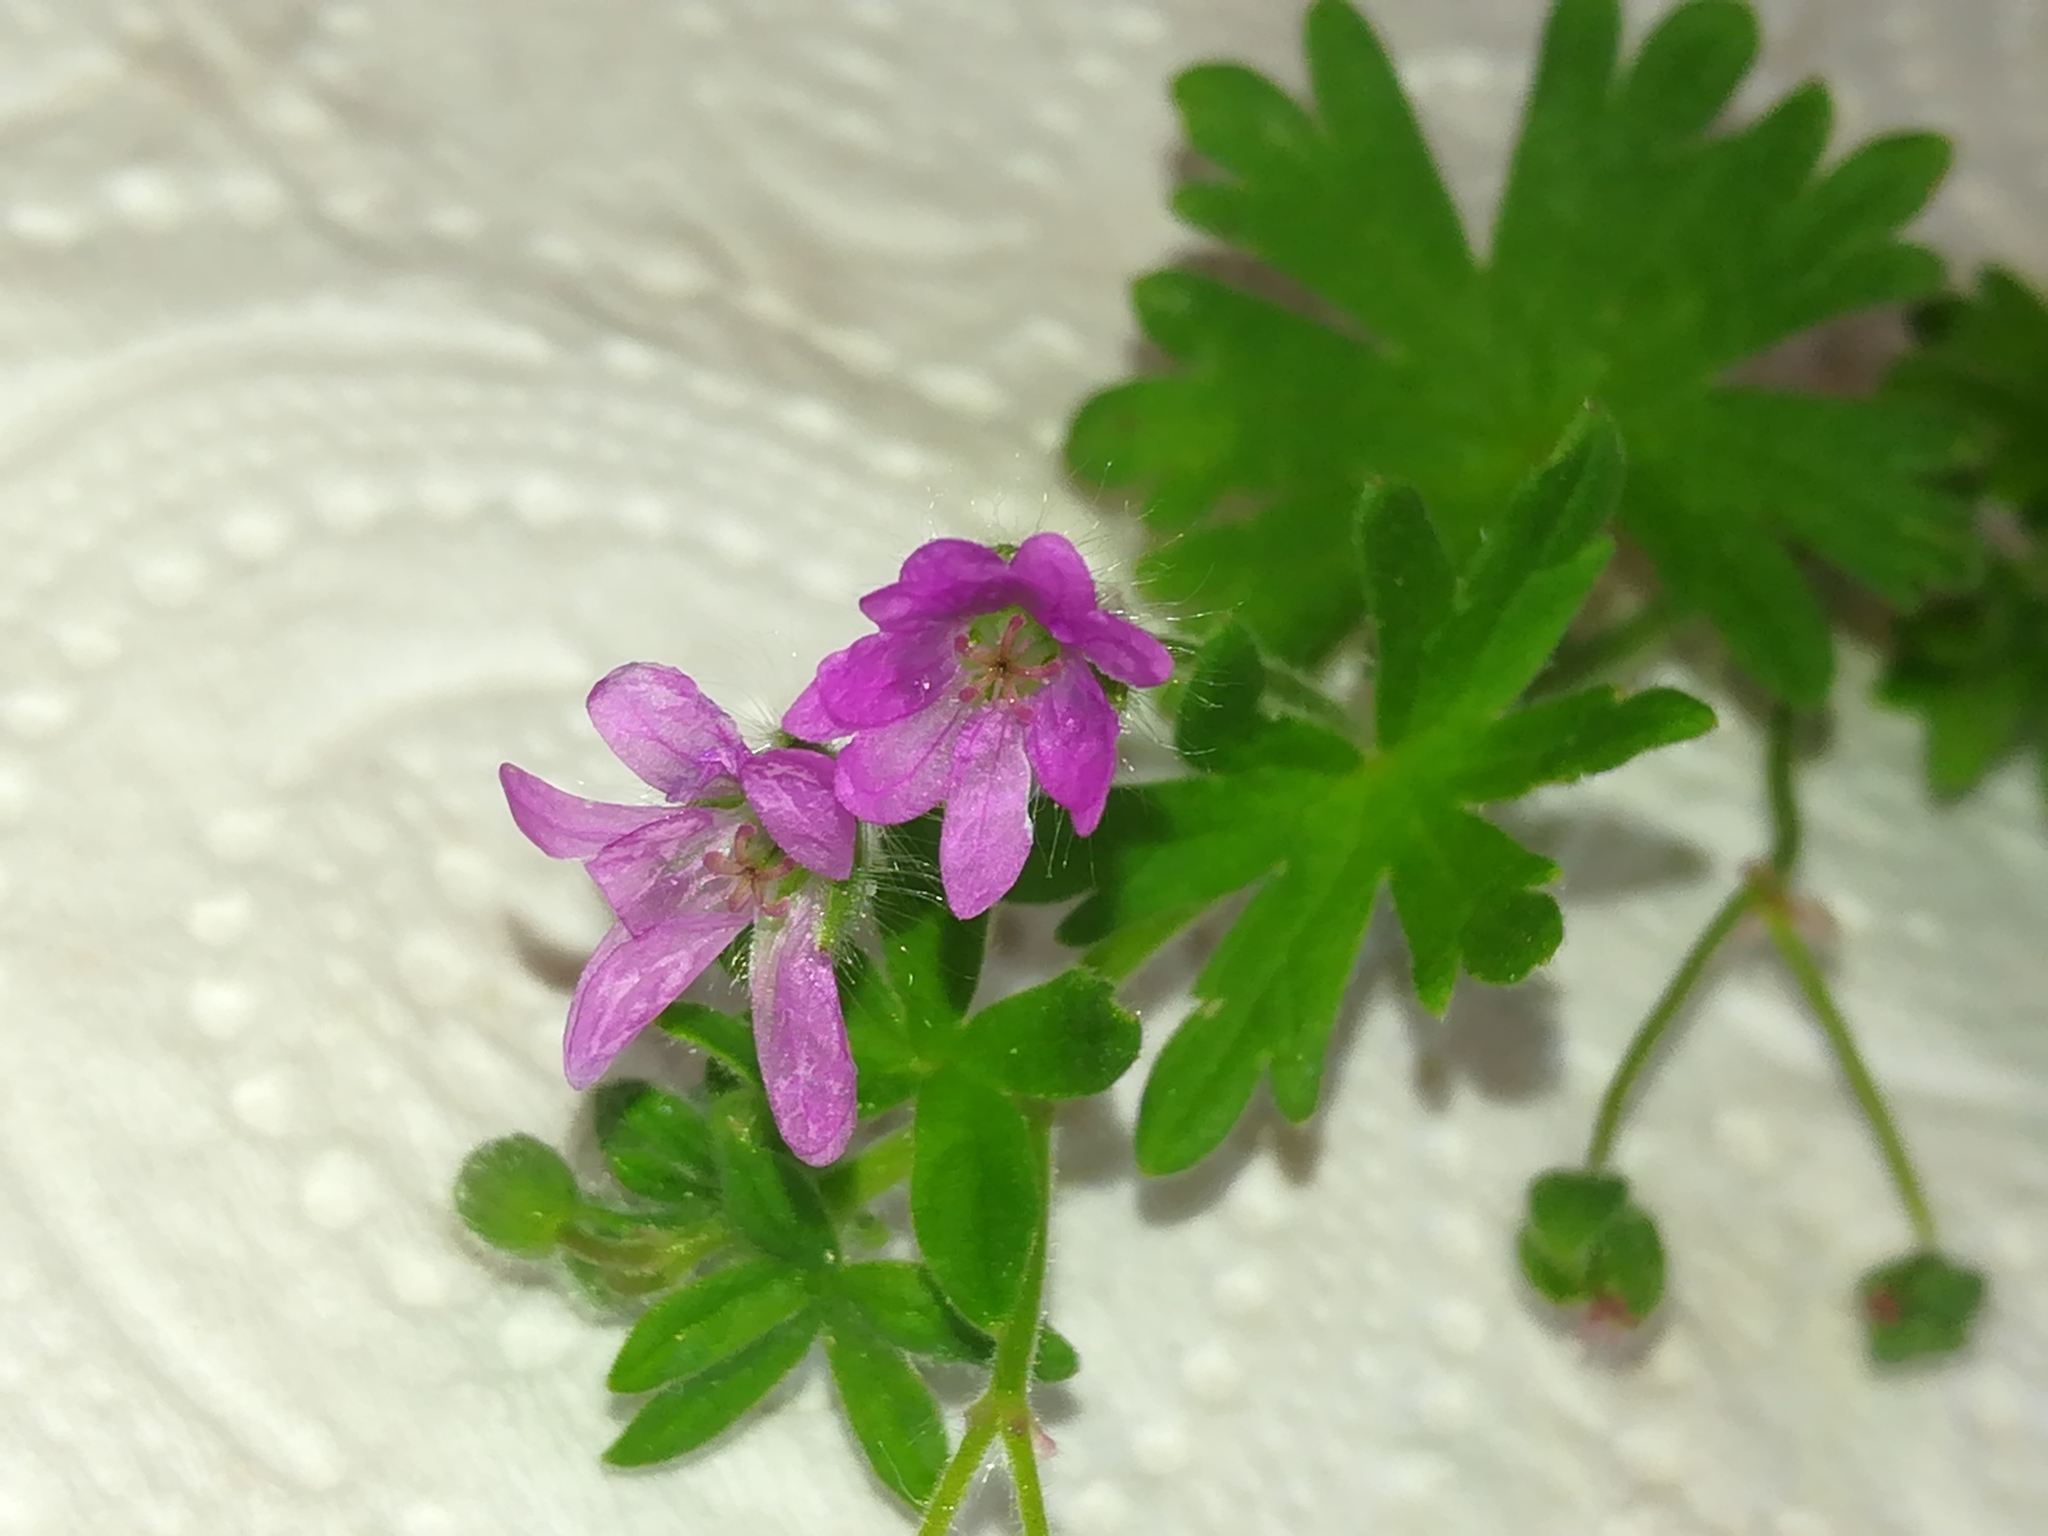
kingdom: Plantae
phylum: Tracheophyta
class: Magnoliopsida
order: Geraniales
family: Geraniaceae
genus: Geranium
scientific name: Geranium molle
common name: Dove's-foot crane's-bill
